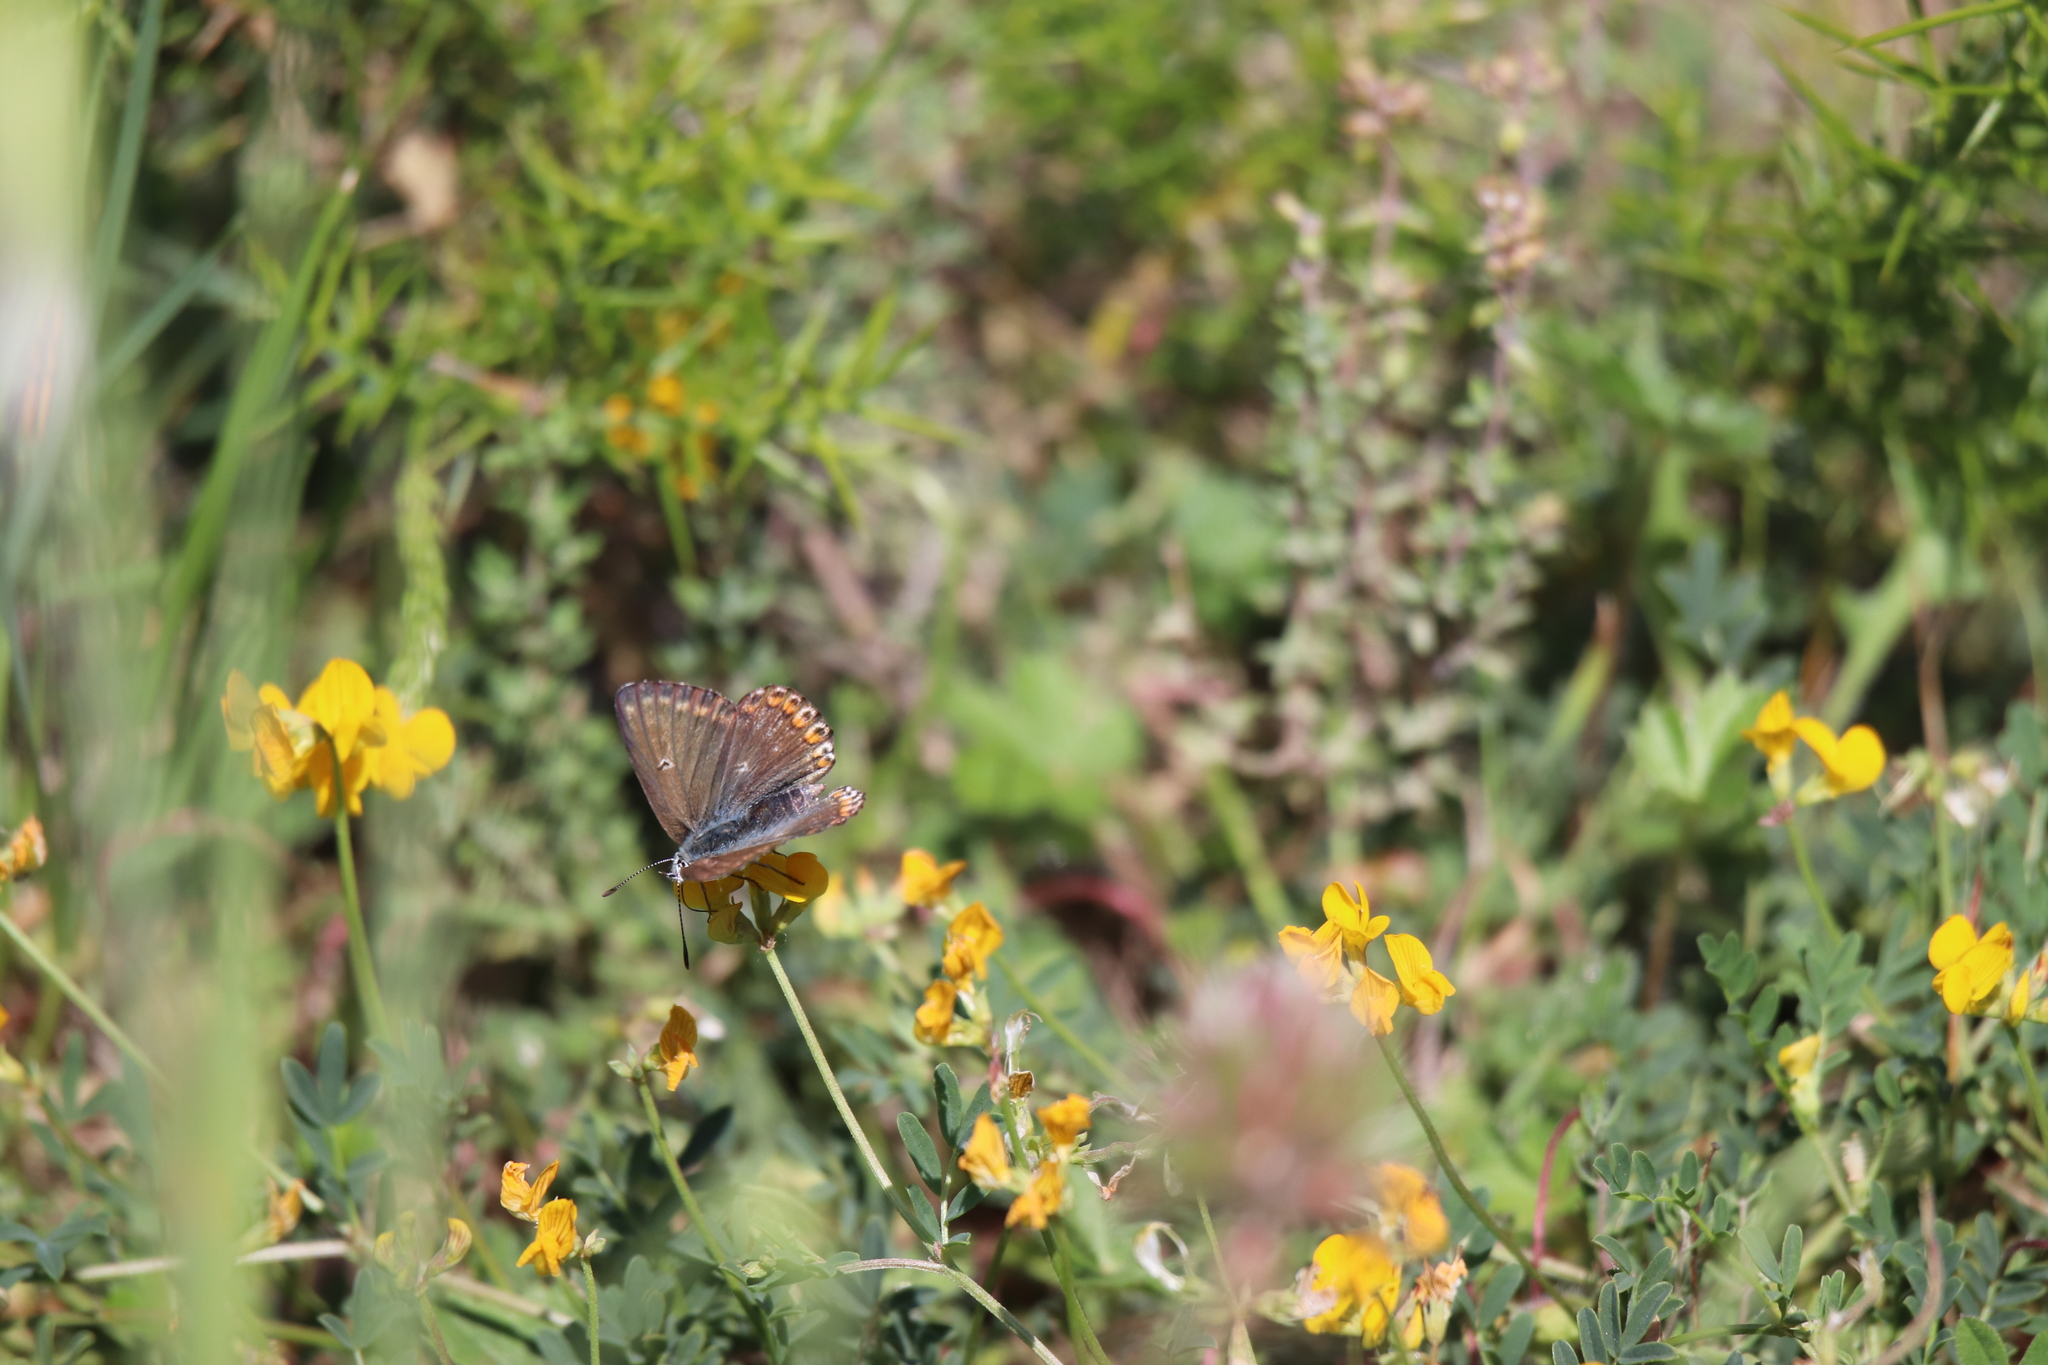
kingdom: Animalia
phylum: Arthropoda
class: Insecta
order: Lepidoptera
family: Lycaenidae
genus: Lysandra
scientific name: Lysandra hispana
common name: Provence chalkhill blue
